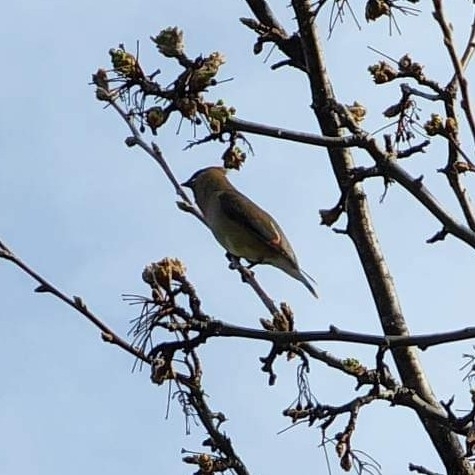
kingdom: Animalia
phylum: Chordata
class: Aves
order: Passeriformes
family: Bombycillidae
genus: Bombycilla
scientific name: Bombycilla cedrorum
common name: Cedar waxwing
